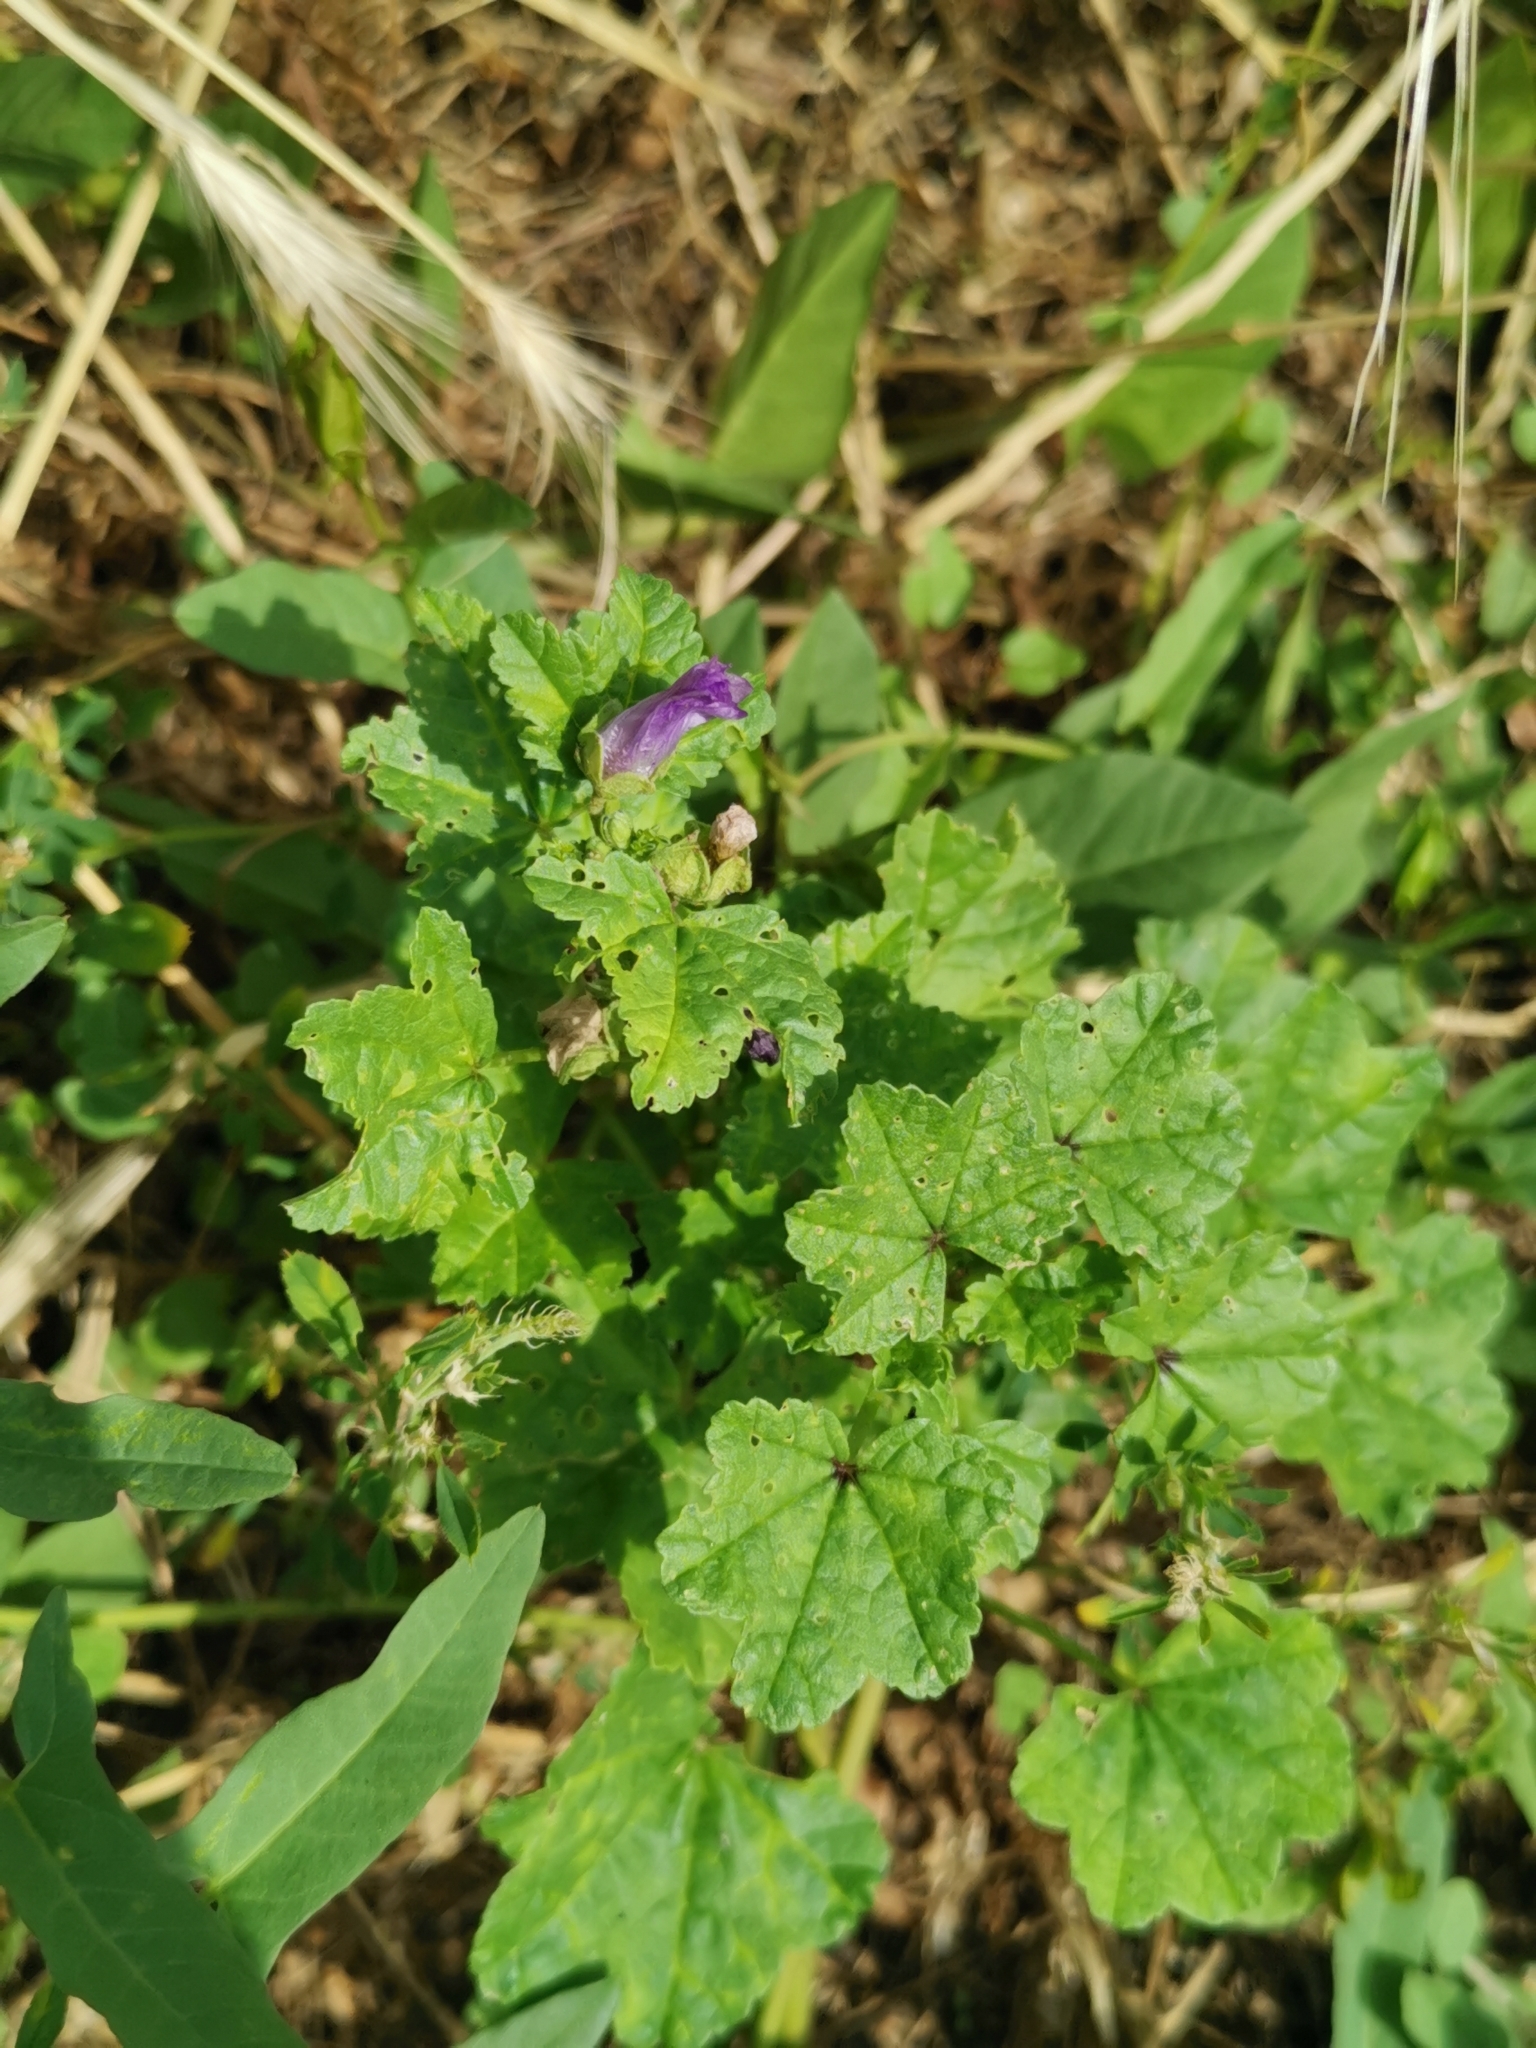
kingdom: Plantae
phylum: Tracheophyta
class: Magnoliopsida
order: Malvales
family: Malvaceae
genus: Malva
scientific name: Malva sylvestris
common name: Common mallow
